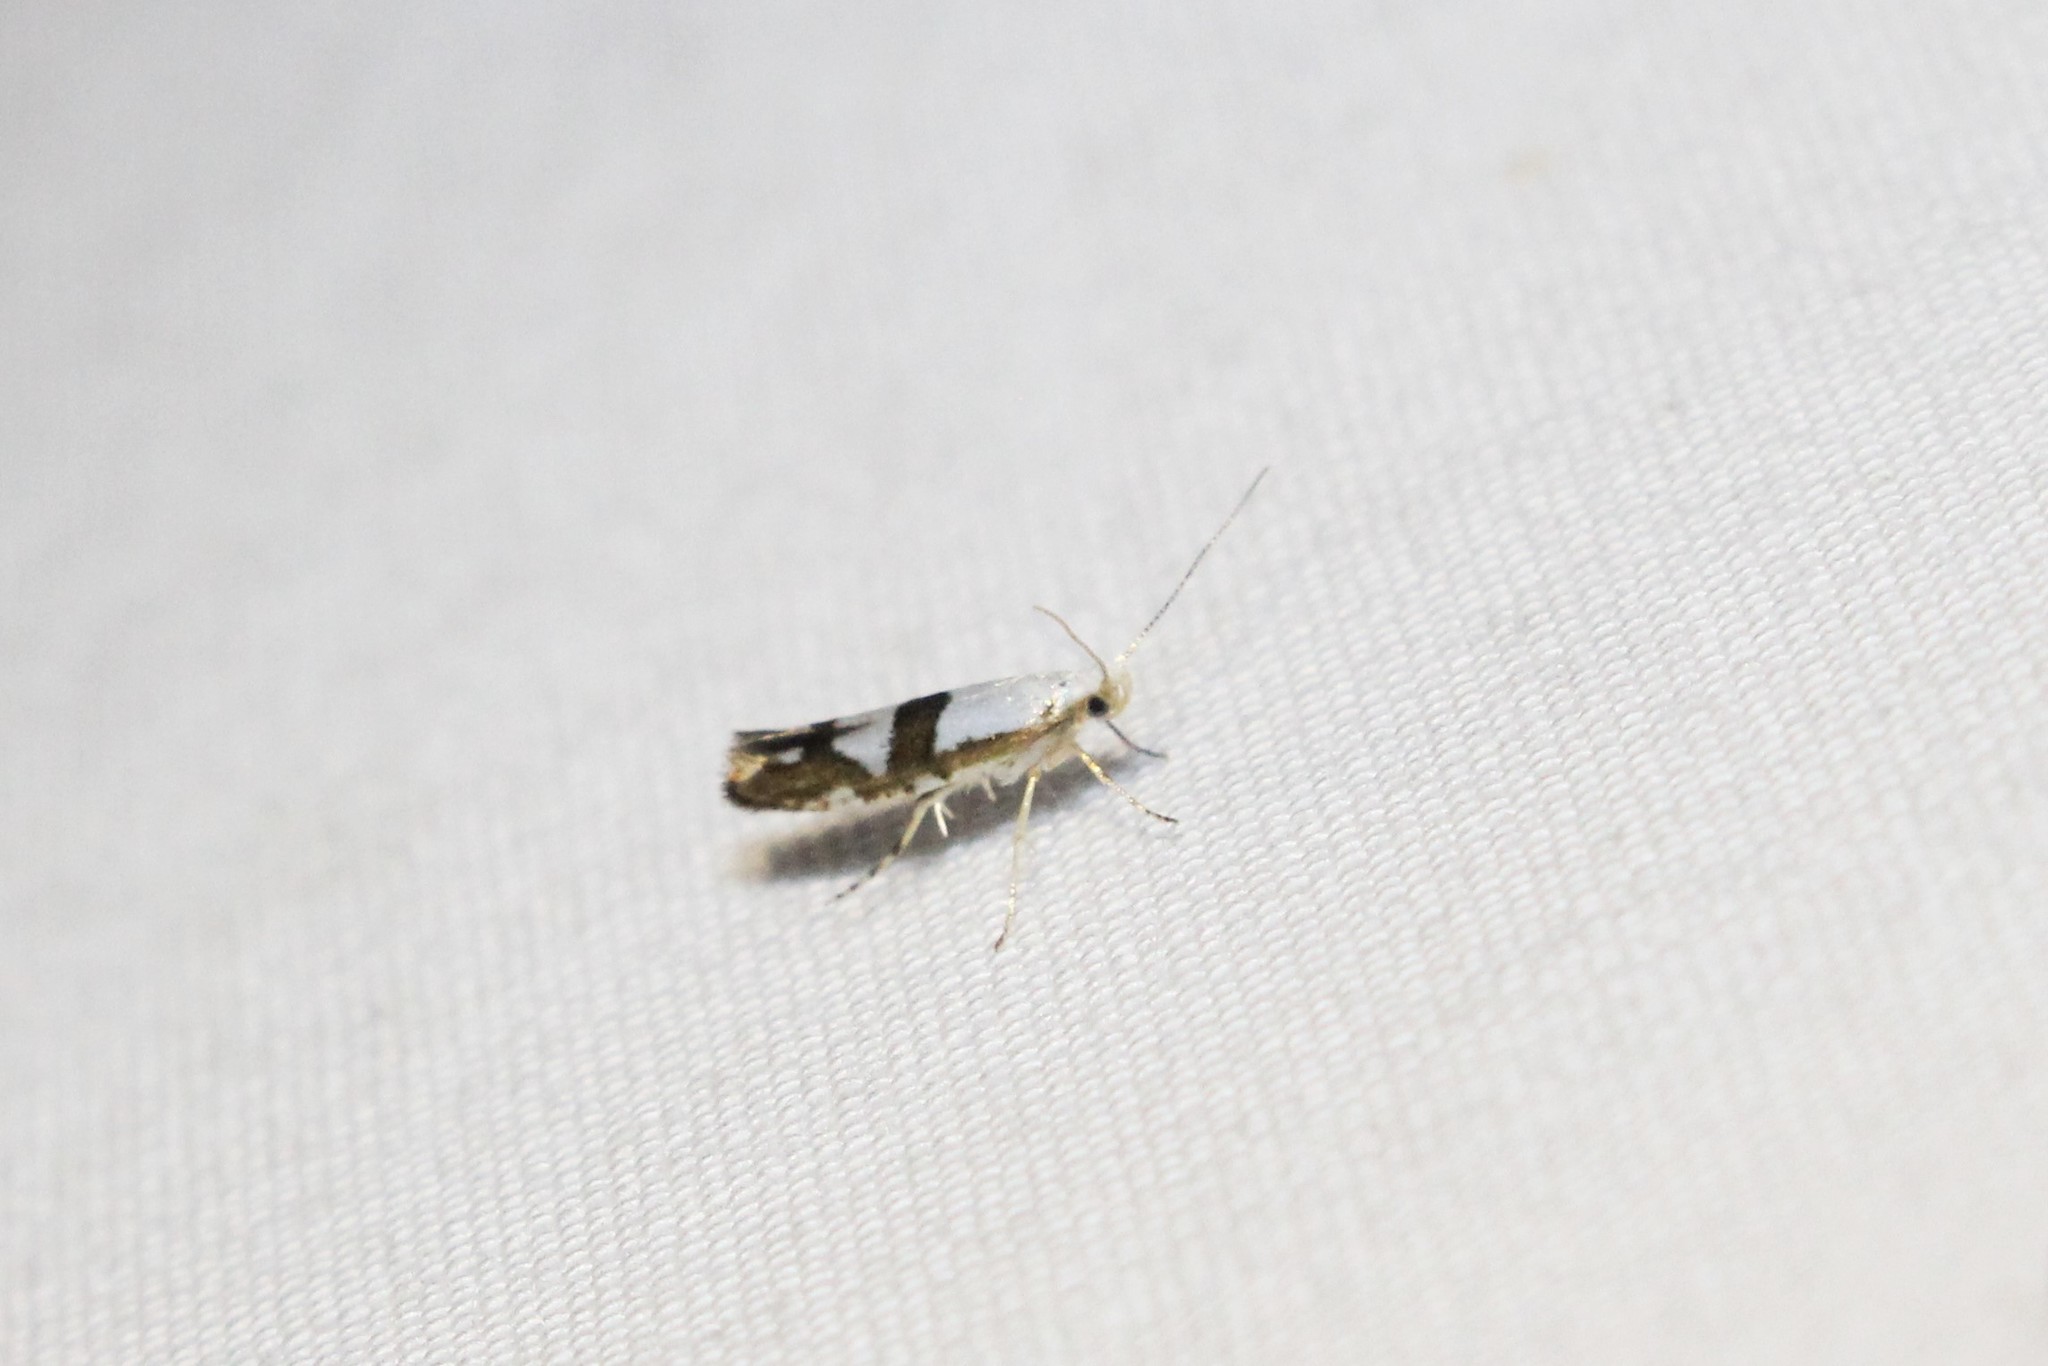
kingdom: Animalia
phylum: Arthropoda
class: Insecta
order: Lepidoptera
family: Argyresthiidae
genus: Argyresthia
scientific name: Argyresthia oreasella
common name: Cherry shoot borer moth
